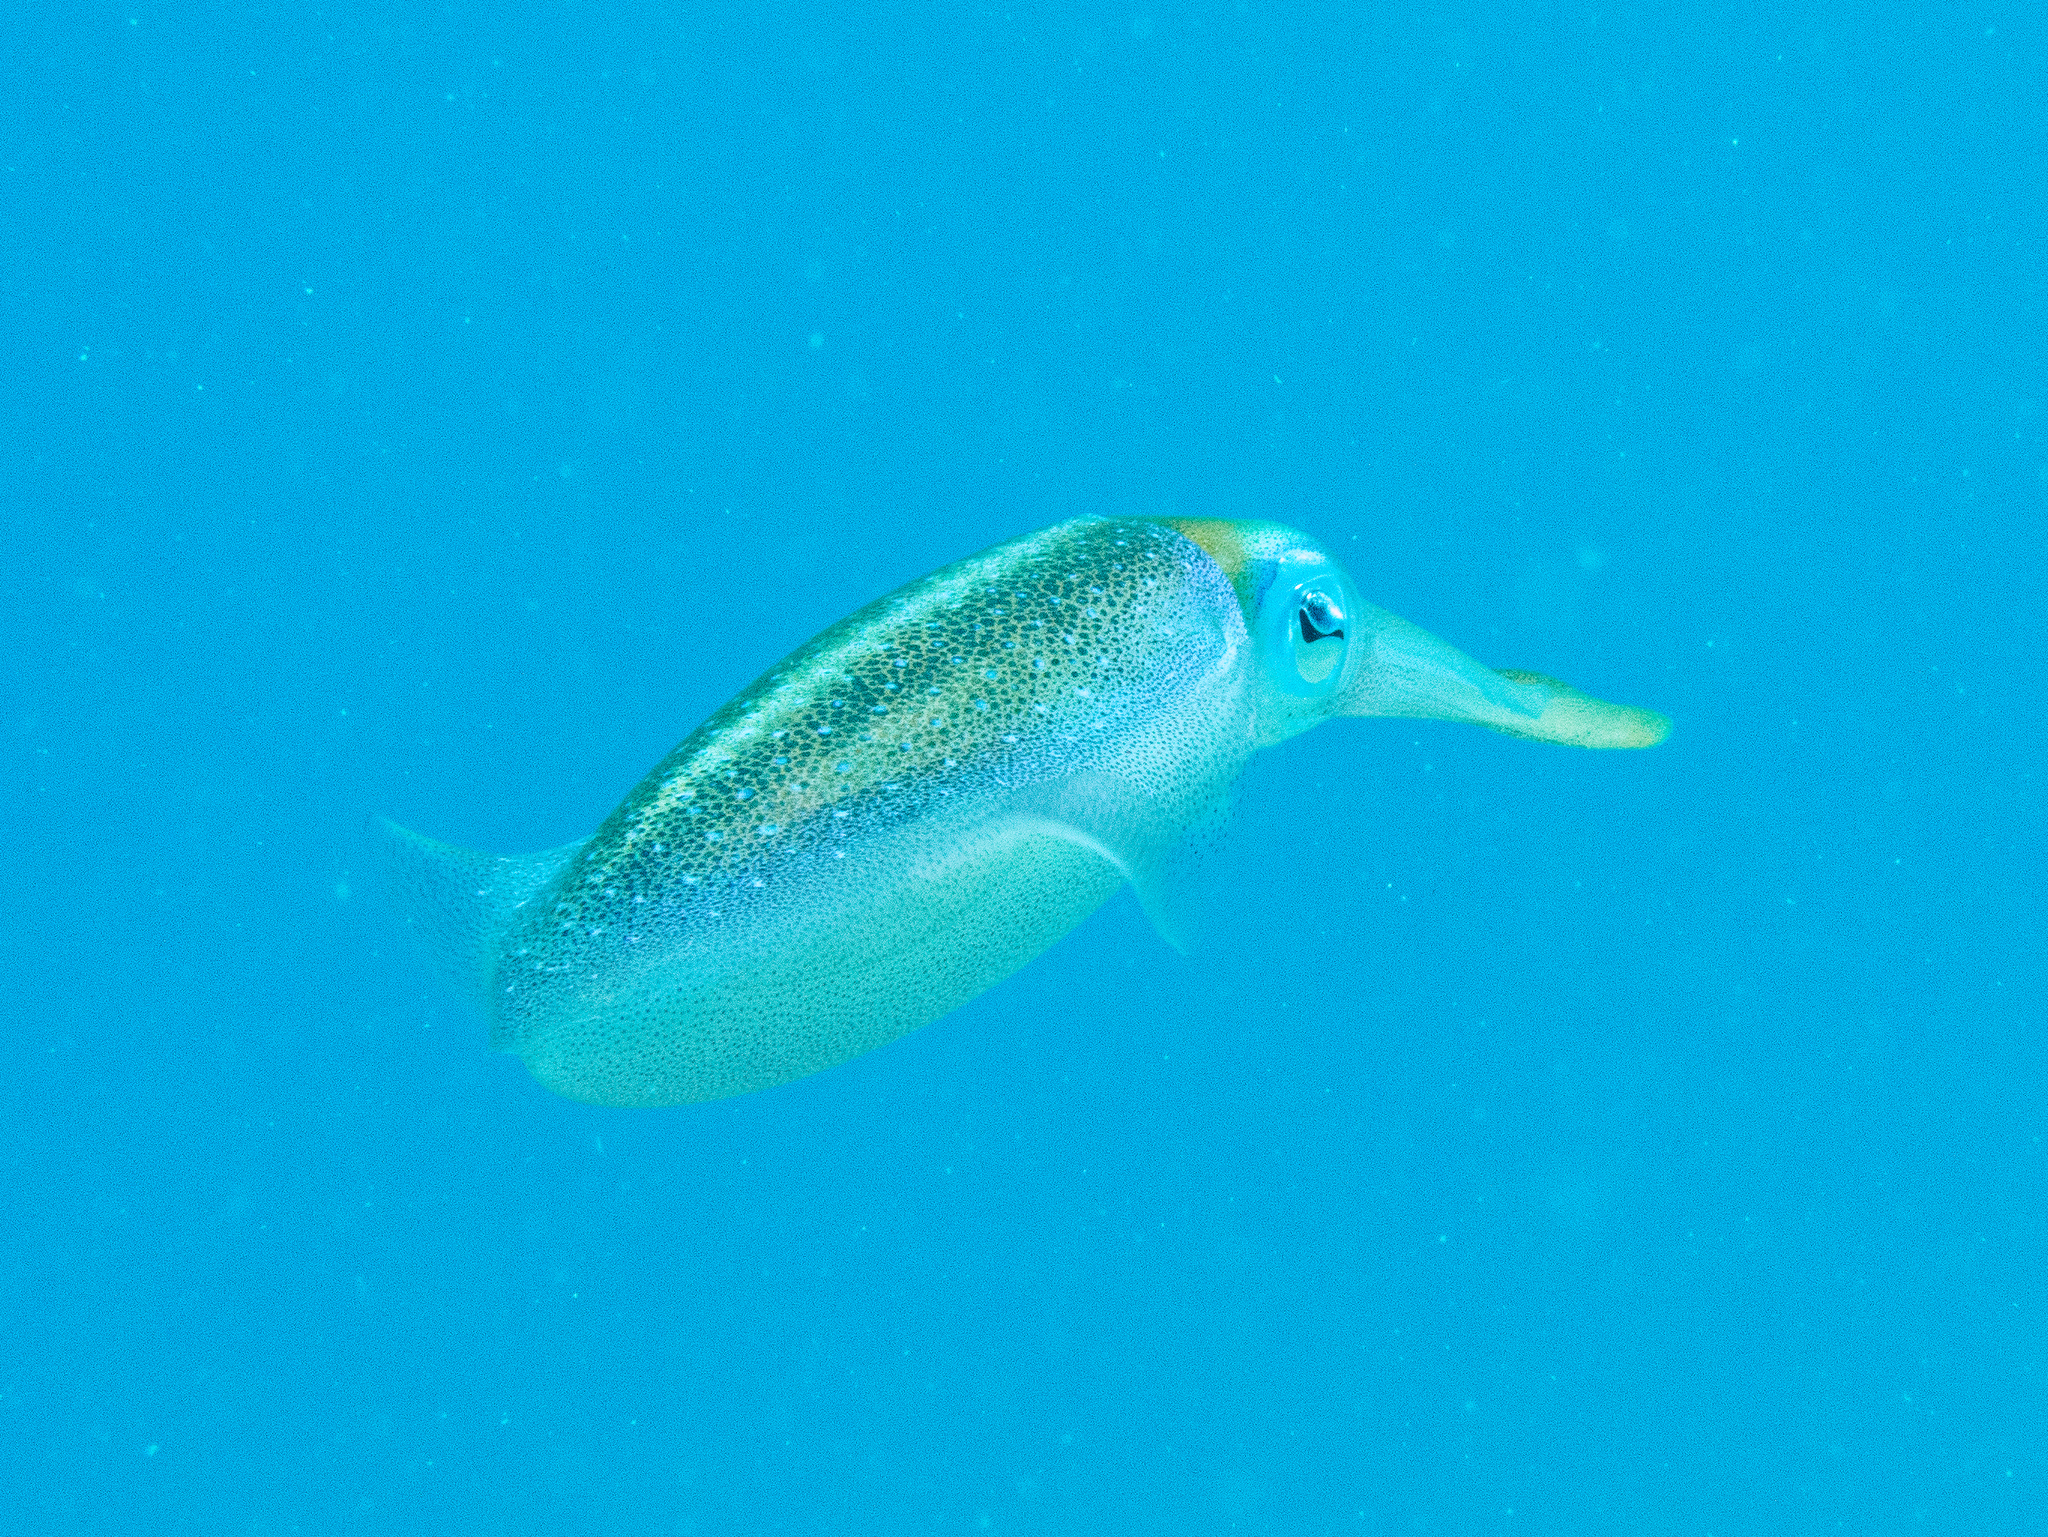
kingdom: Animalia
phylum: Mollusca
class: Cephalopoda
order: Myopsida
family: Loliginidae
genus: Sepioteuthis
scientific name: Sepioteuthis sepioidea
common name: Caribbean reef squid
